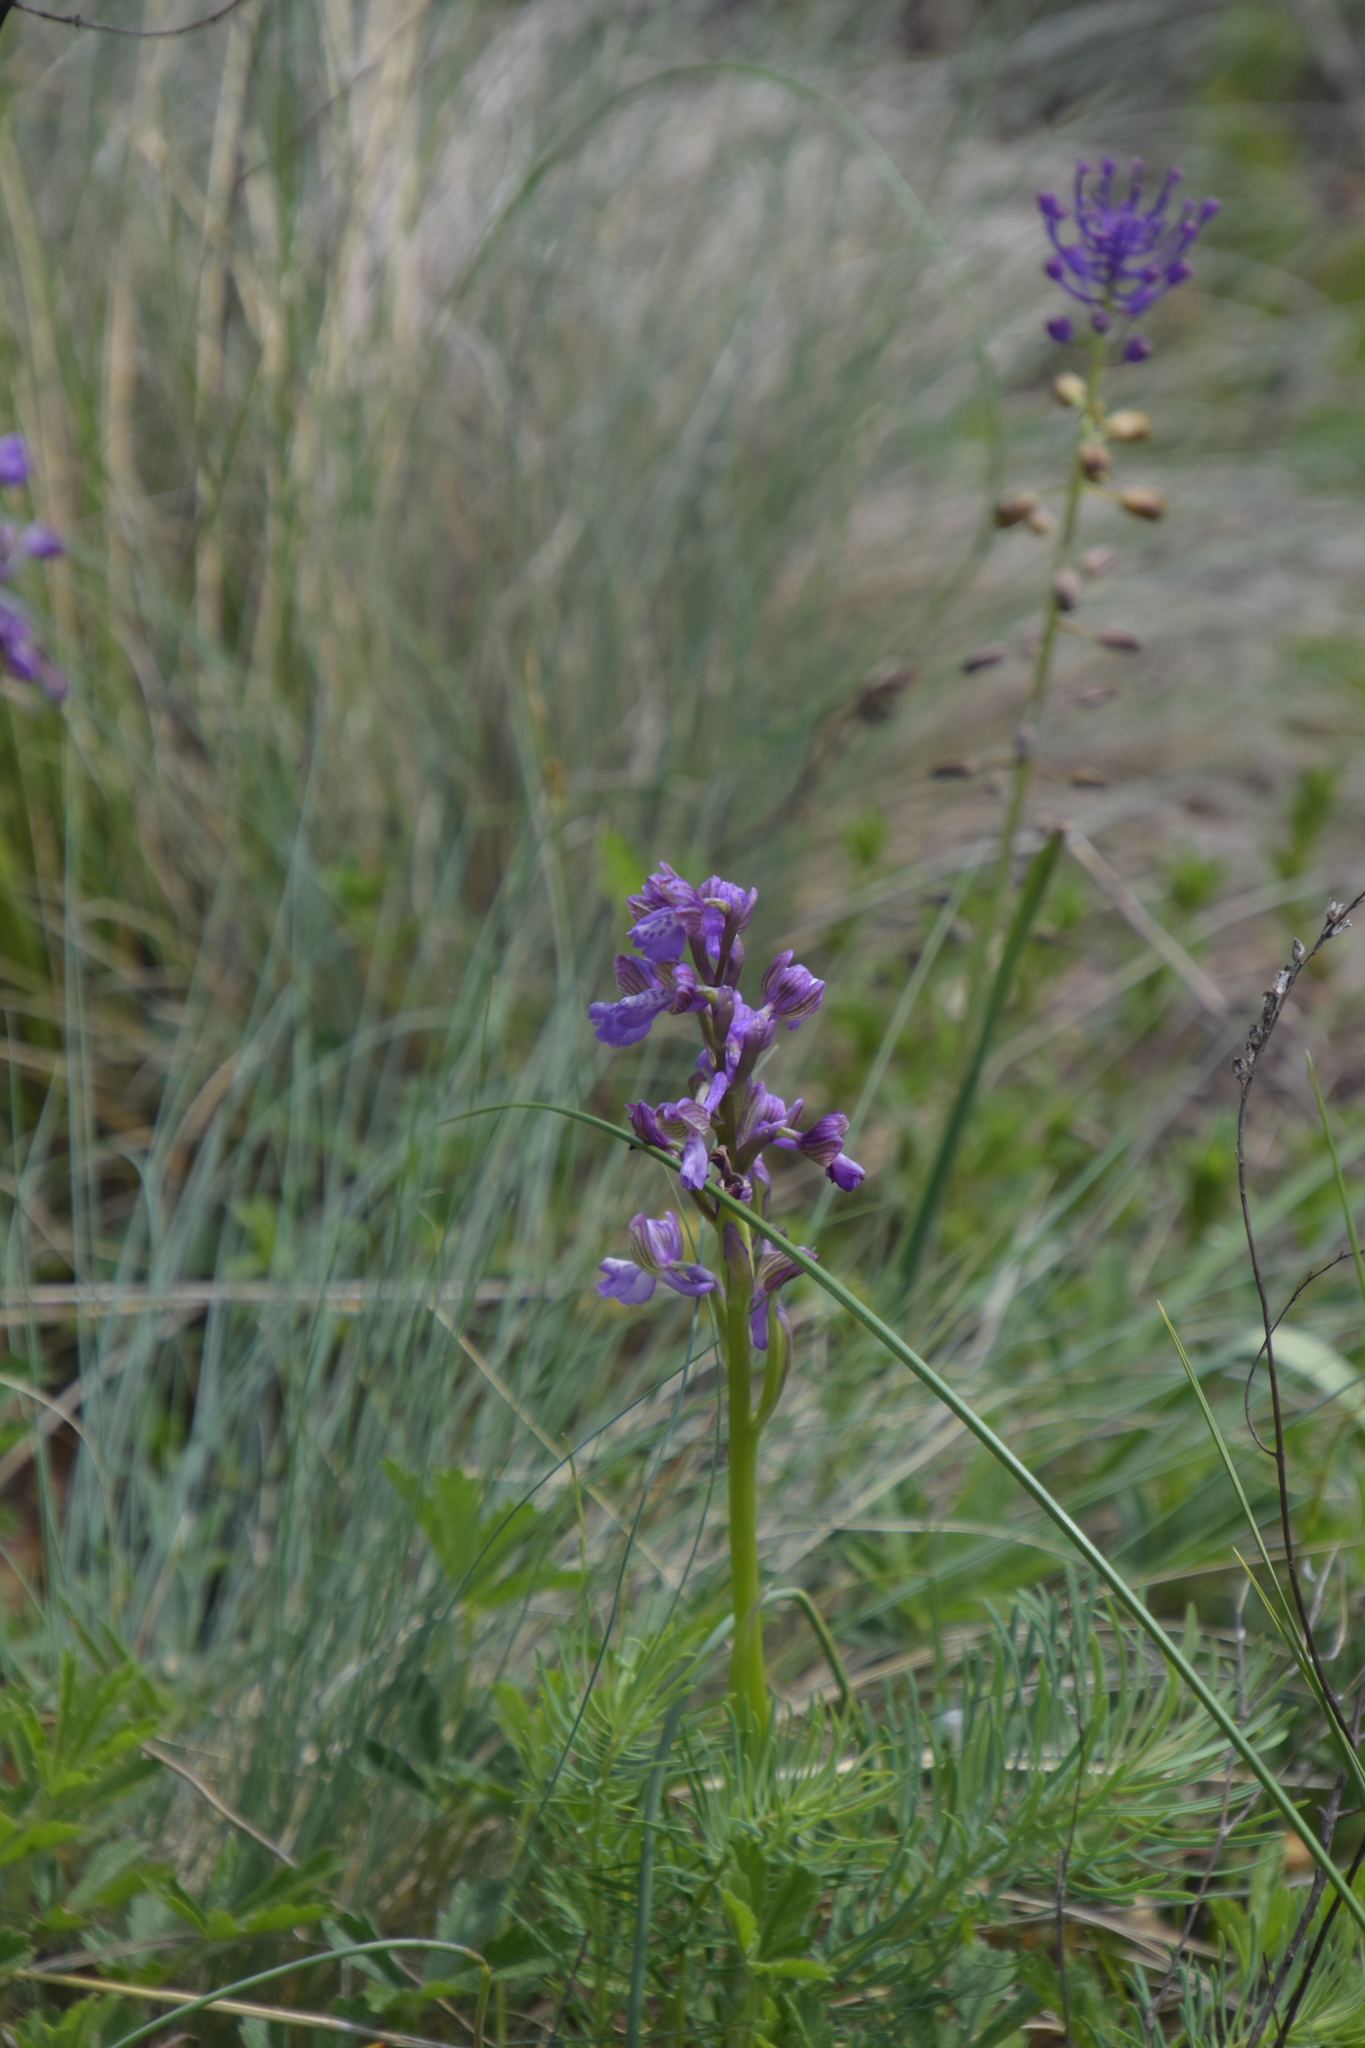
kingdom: Plantae
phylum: Tracheophyta
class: Liliopsida
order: Asparagales
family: Orchidaceae
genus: Anacamptis
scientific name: Anacamptis morio
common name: Green-winged orchid
